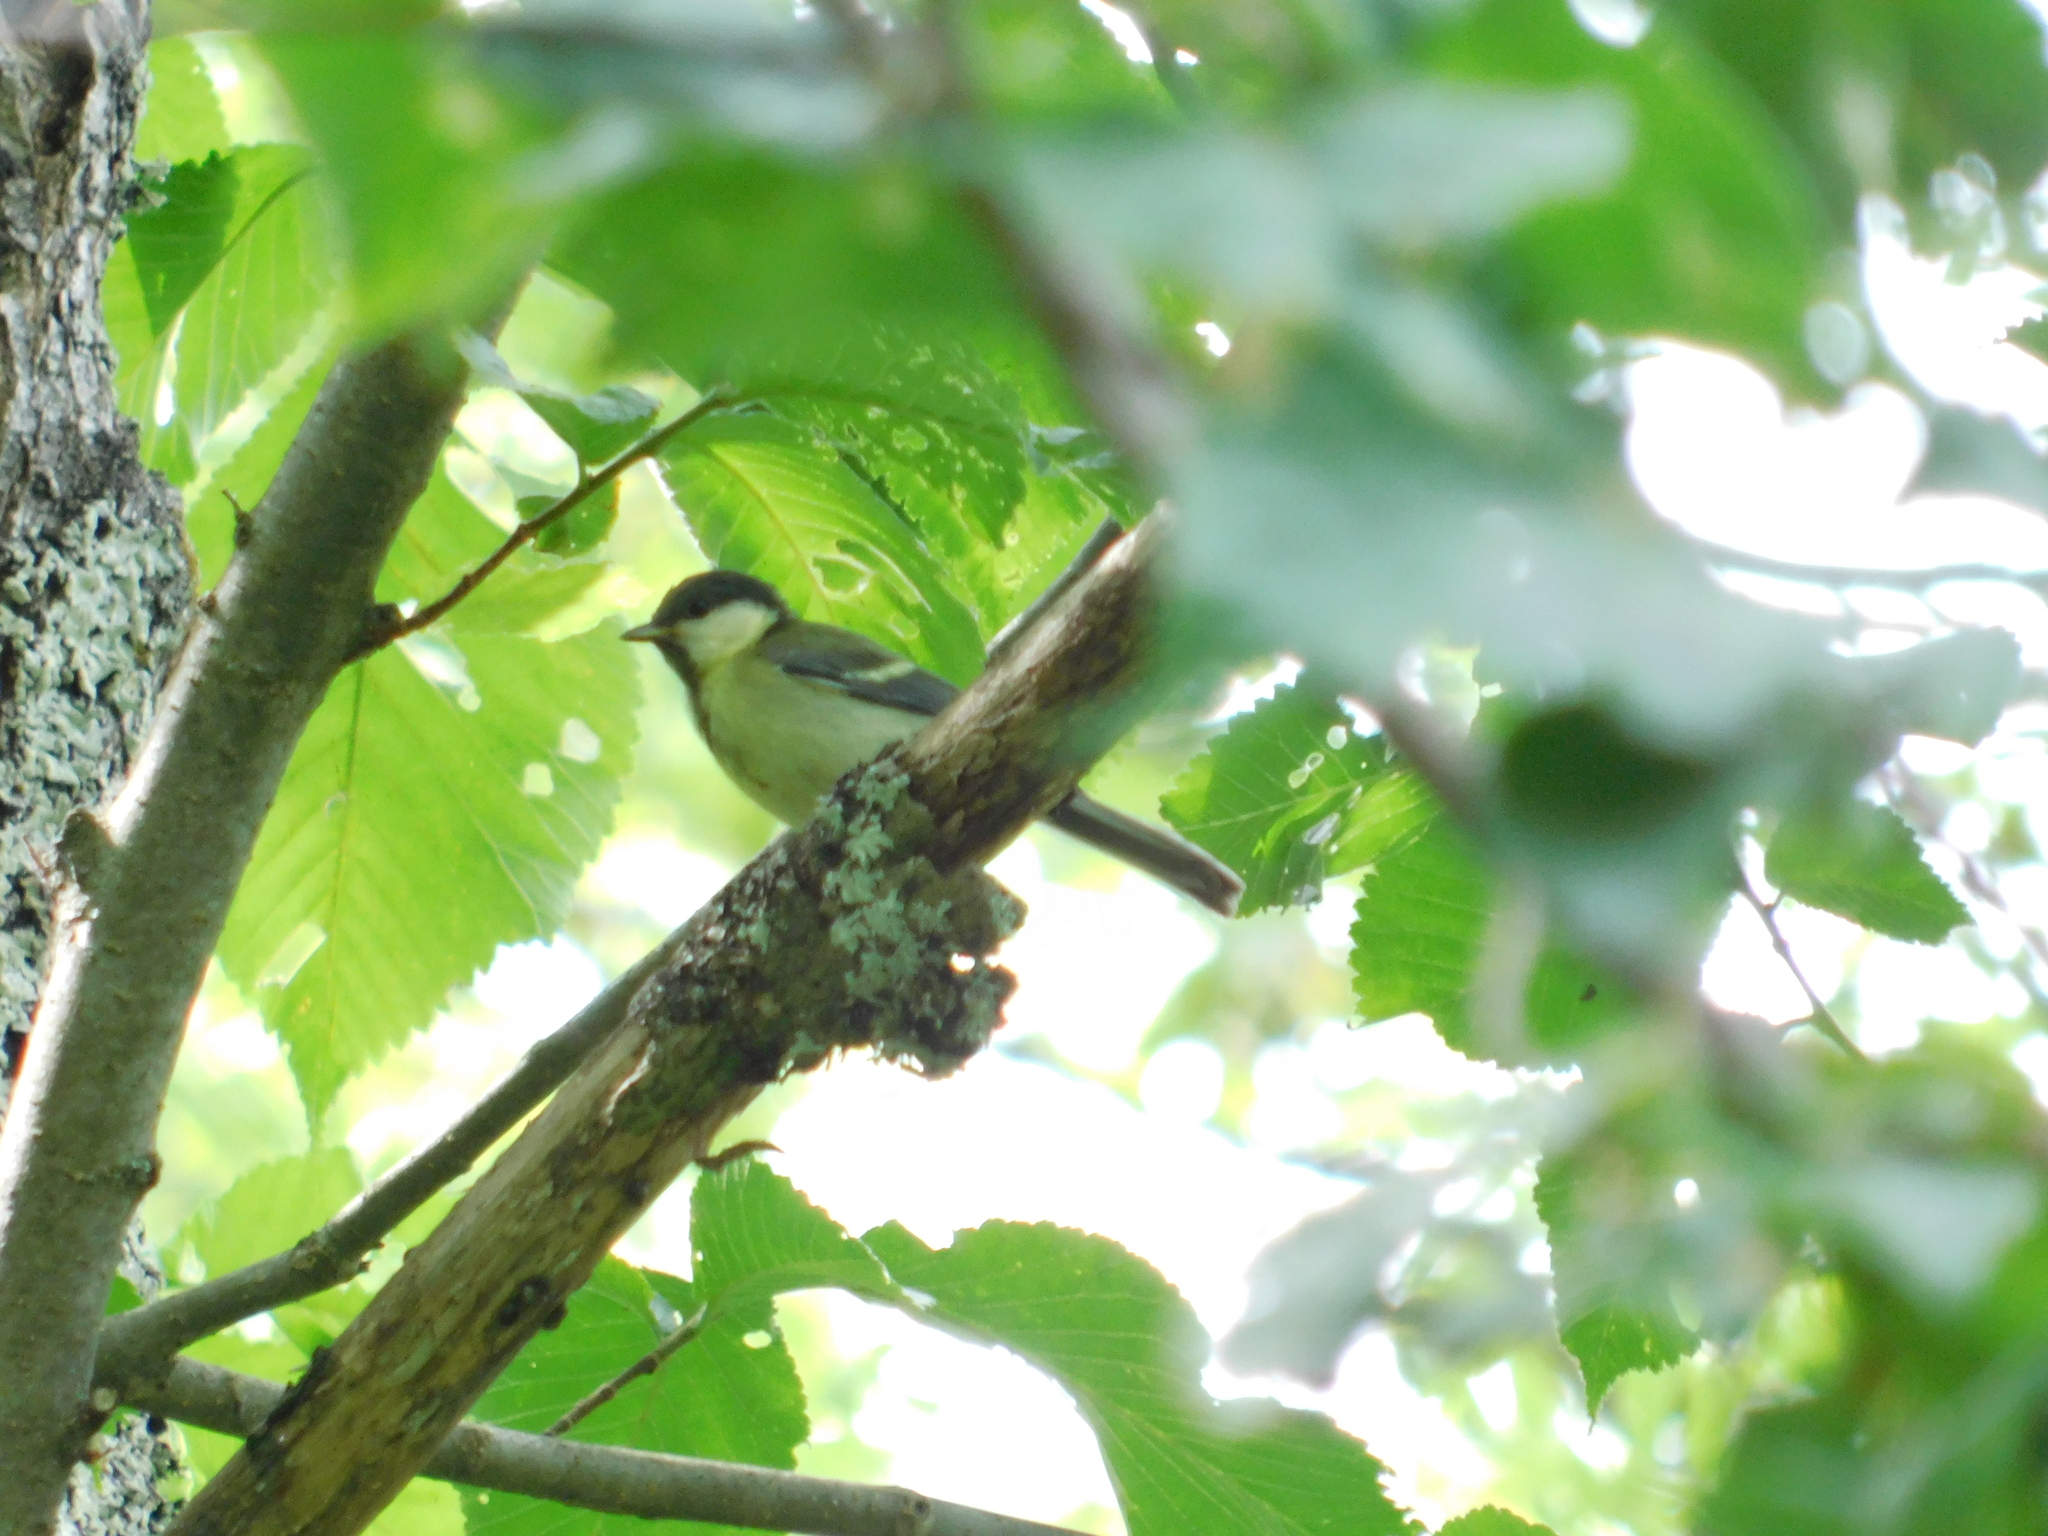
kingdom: Animalia
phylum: Chordata
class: Aves
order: Passeriformes
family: Paridae
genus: Parus
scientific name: Parus major
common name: Great tit
